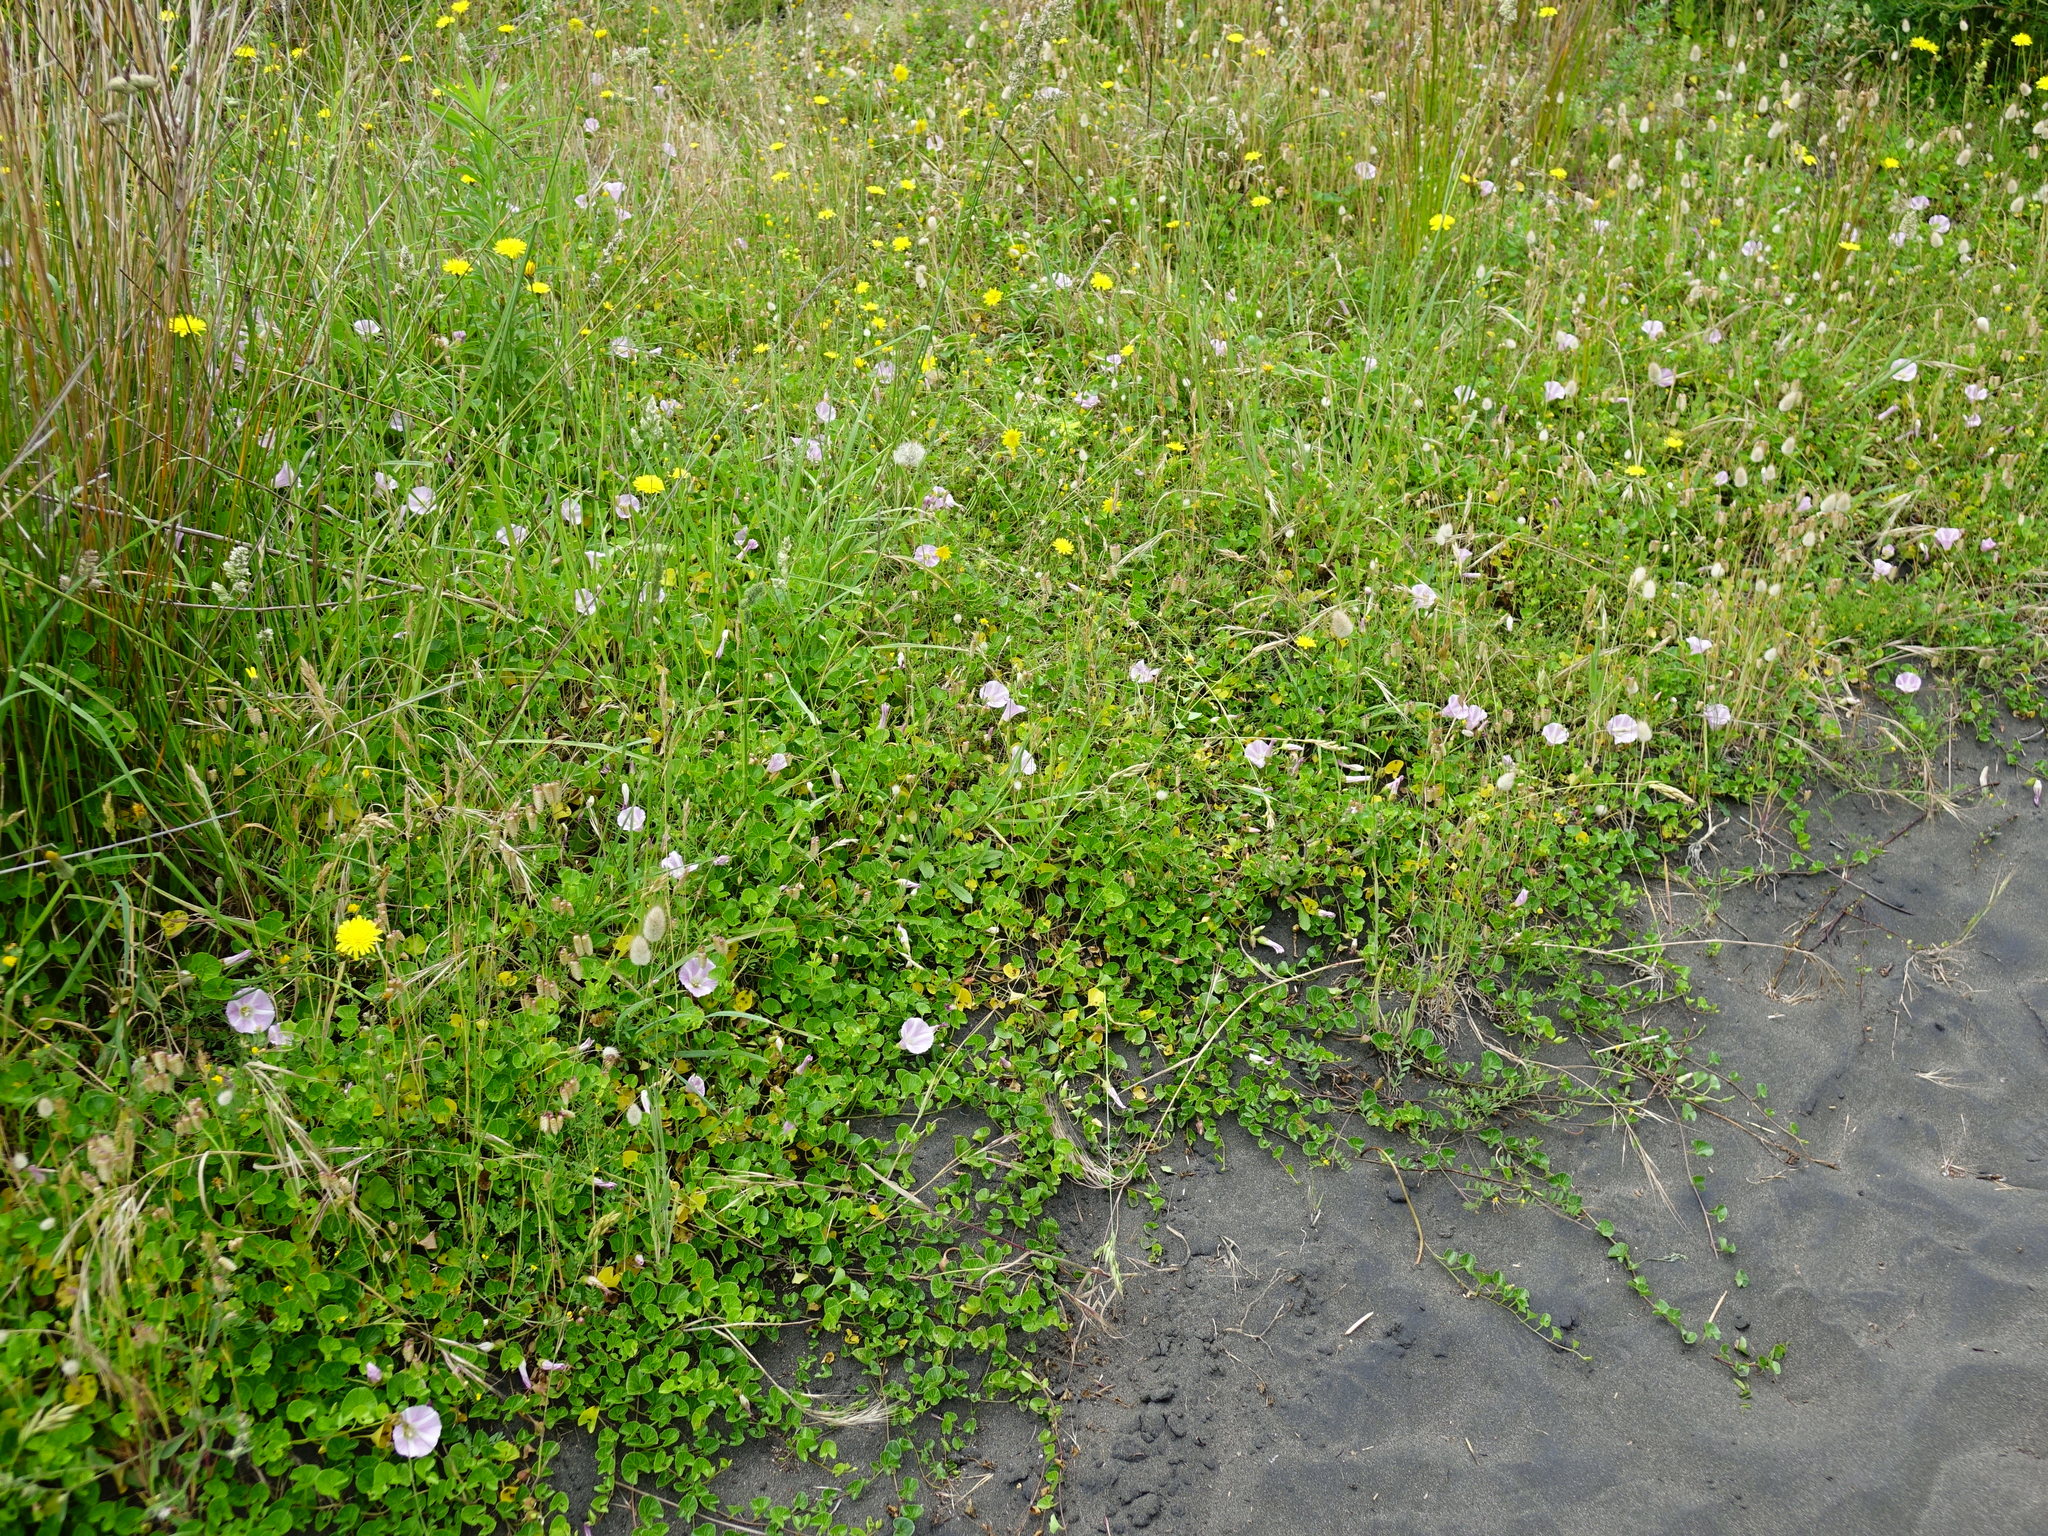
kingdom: Plantae
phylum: Tracheophyta
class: Magnoliopsida
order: Solanales
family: Convolvulaceae
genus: Calystegia
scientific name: Calystegia soldanella
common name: Sea bindweed
